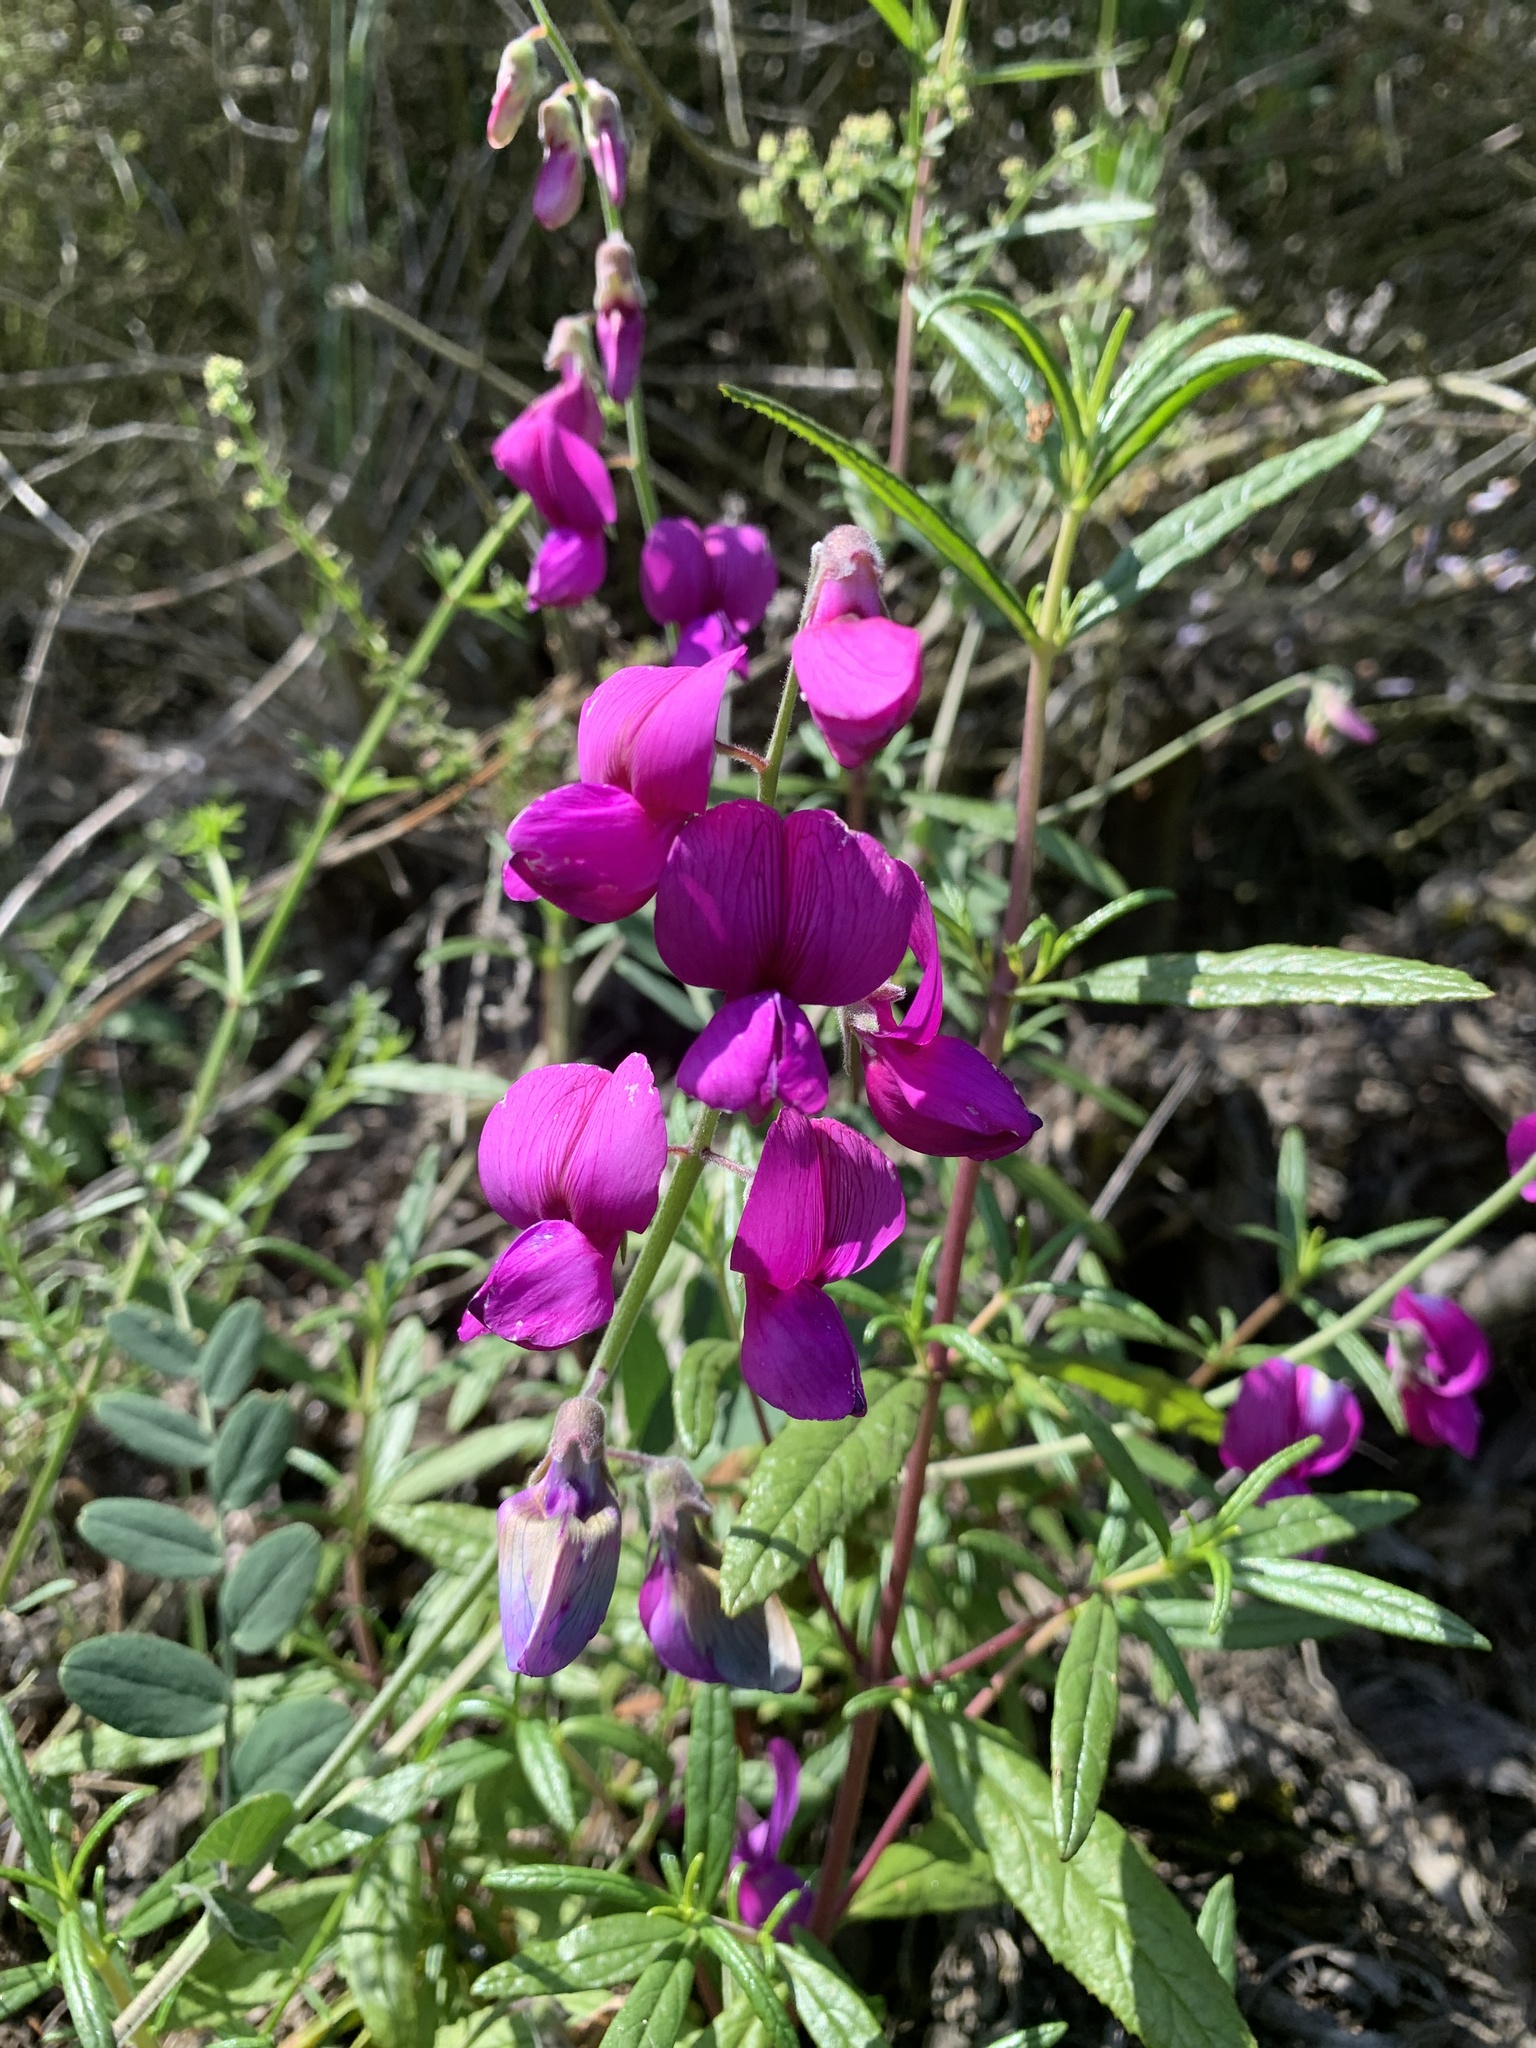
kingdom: Plantae
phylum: Tracheophyta
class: Magnoliopsida
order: Fabales
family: Fabaceae
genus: Lathyrus
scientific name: Lathyrus vestitus
